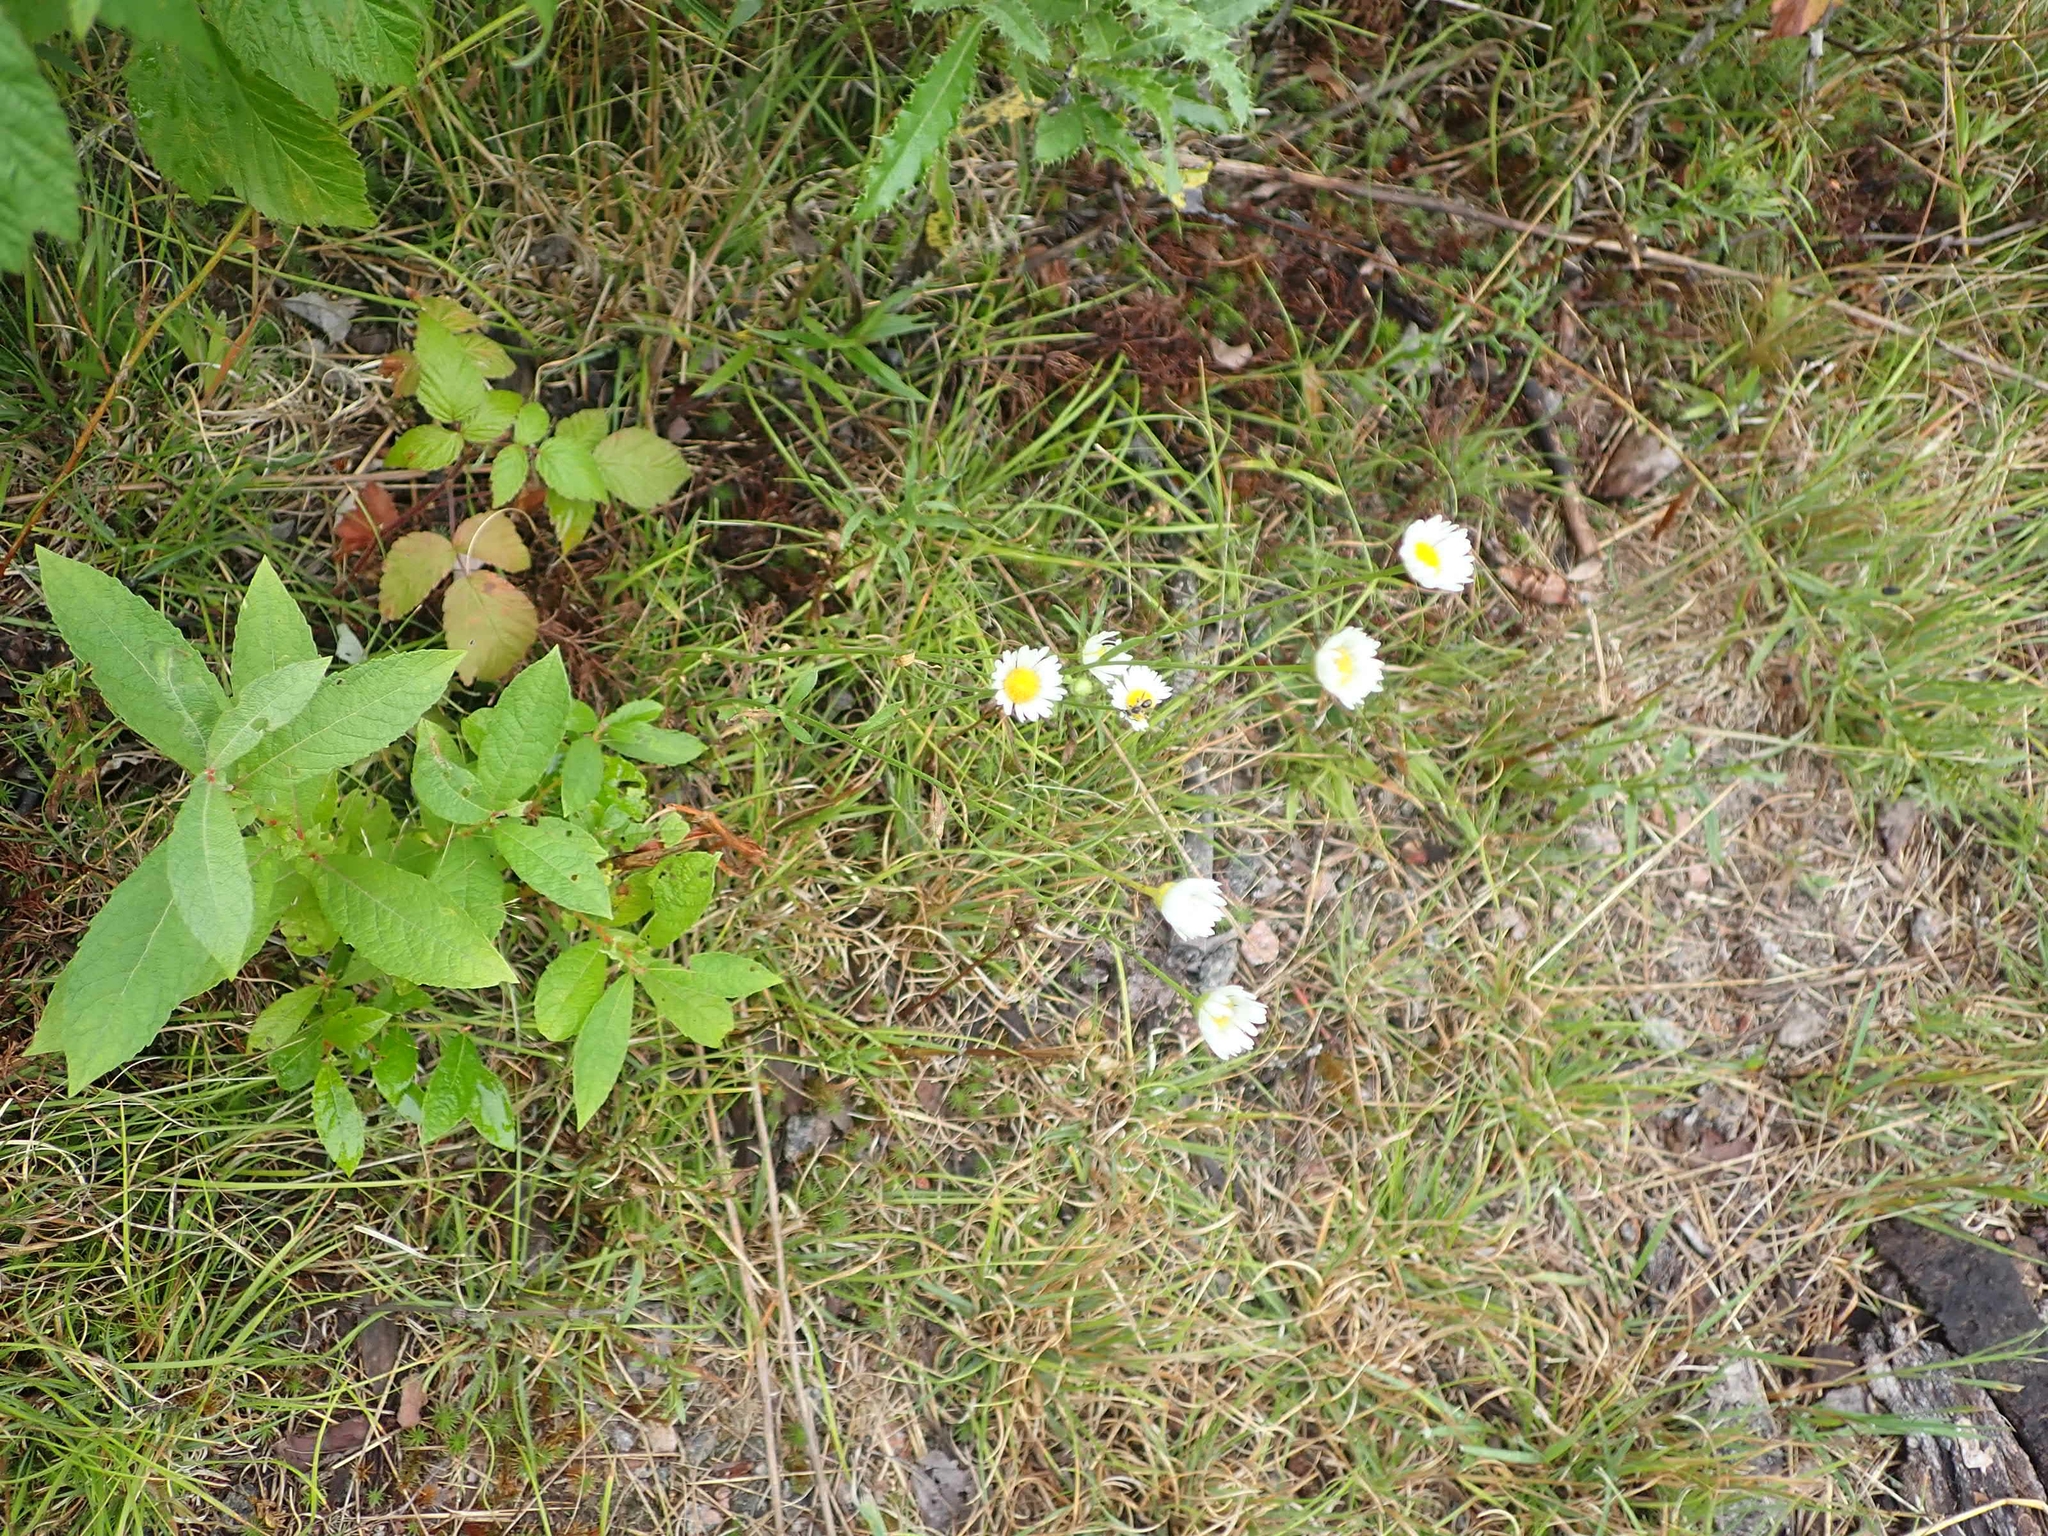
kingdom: Plantae
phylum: Tracheophyta
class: Magnoliopsida
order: Asterales
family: Asteraceae
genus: Erigeron
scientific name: Erigeron strigosus
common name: Common eastern fleabane
